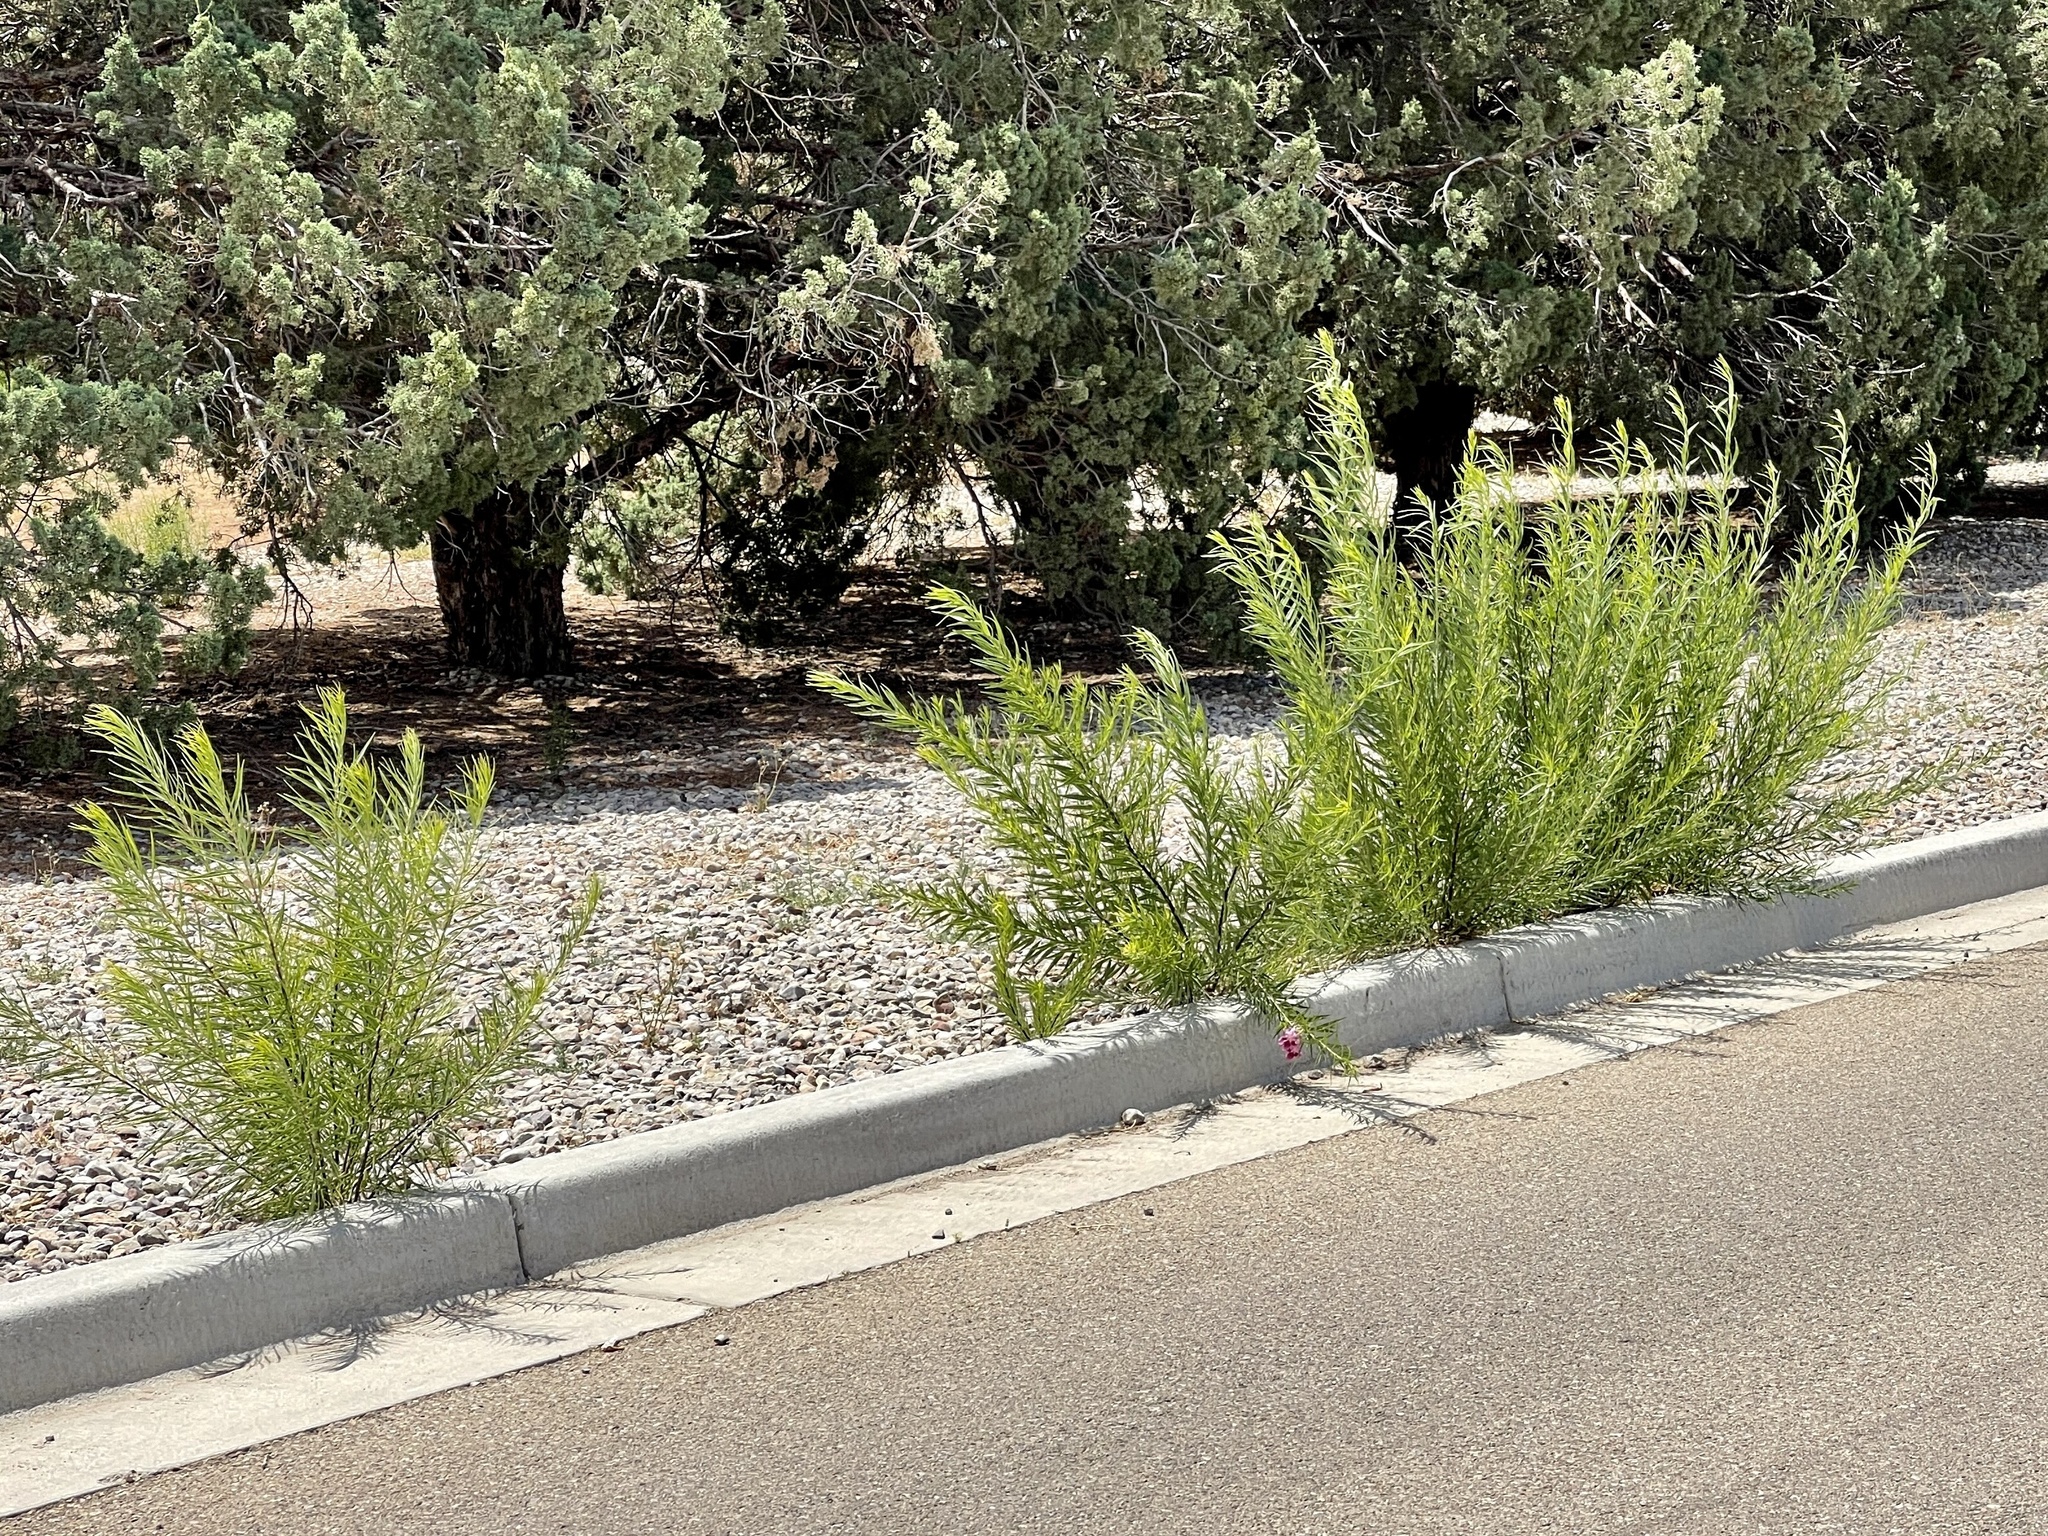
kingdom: Plantae
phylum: Tracheophyta
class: Magnoliopsida
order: Lamiales
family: Bignoniaceae
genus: Chilopsis
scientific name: Chilopsis linearis
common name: Desert-willow
